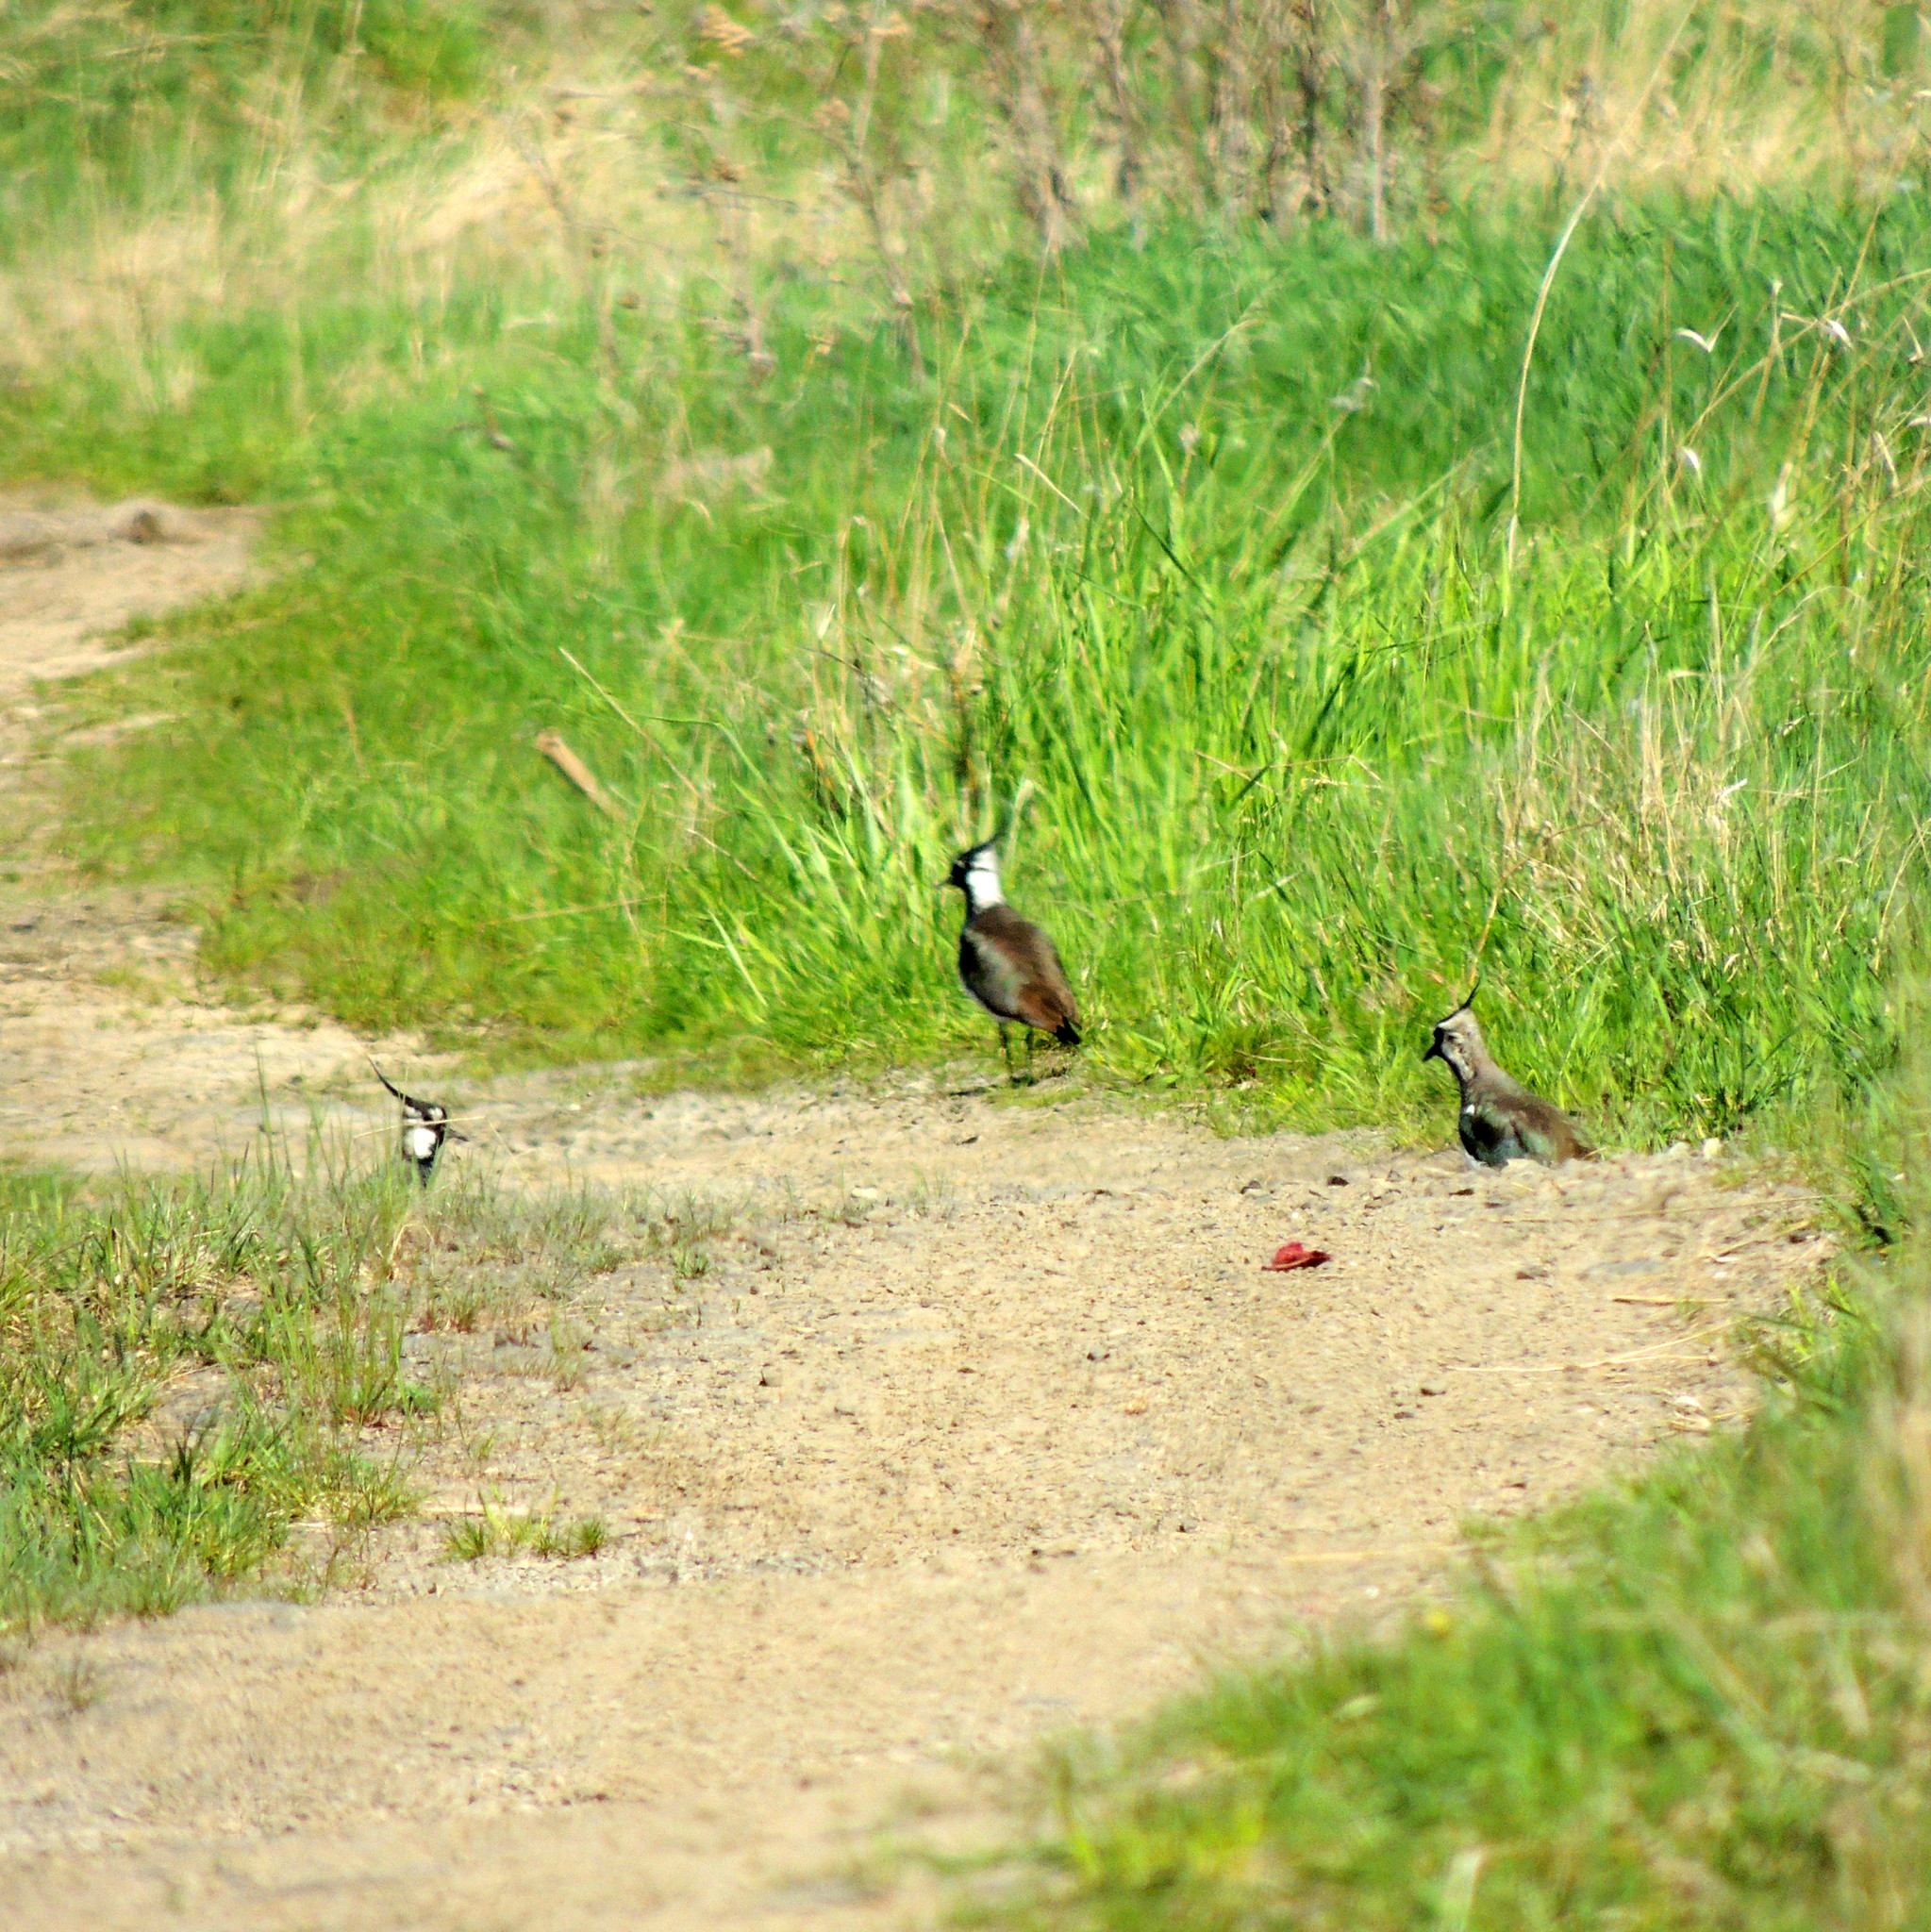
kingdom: Animalia
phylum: Chordata
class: Aves
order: Charadriiformes
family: Charadriidae
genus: Vanellus
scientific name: Vanellus vanellus
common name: Northern lapwing
